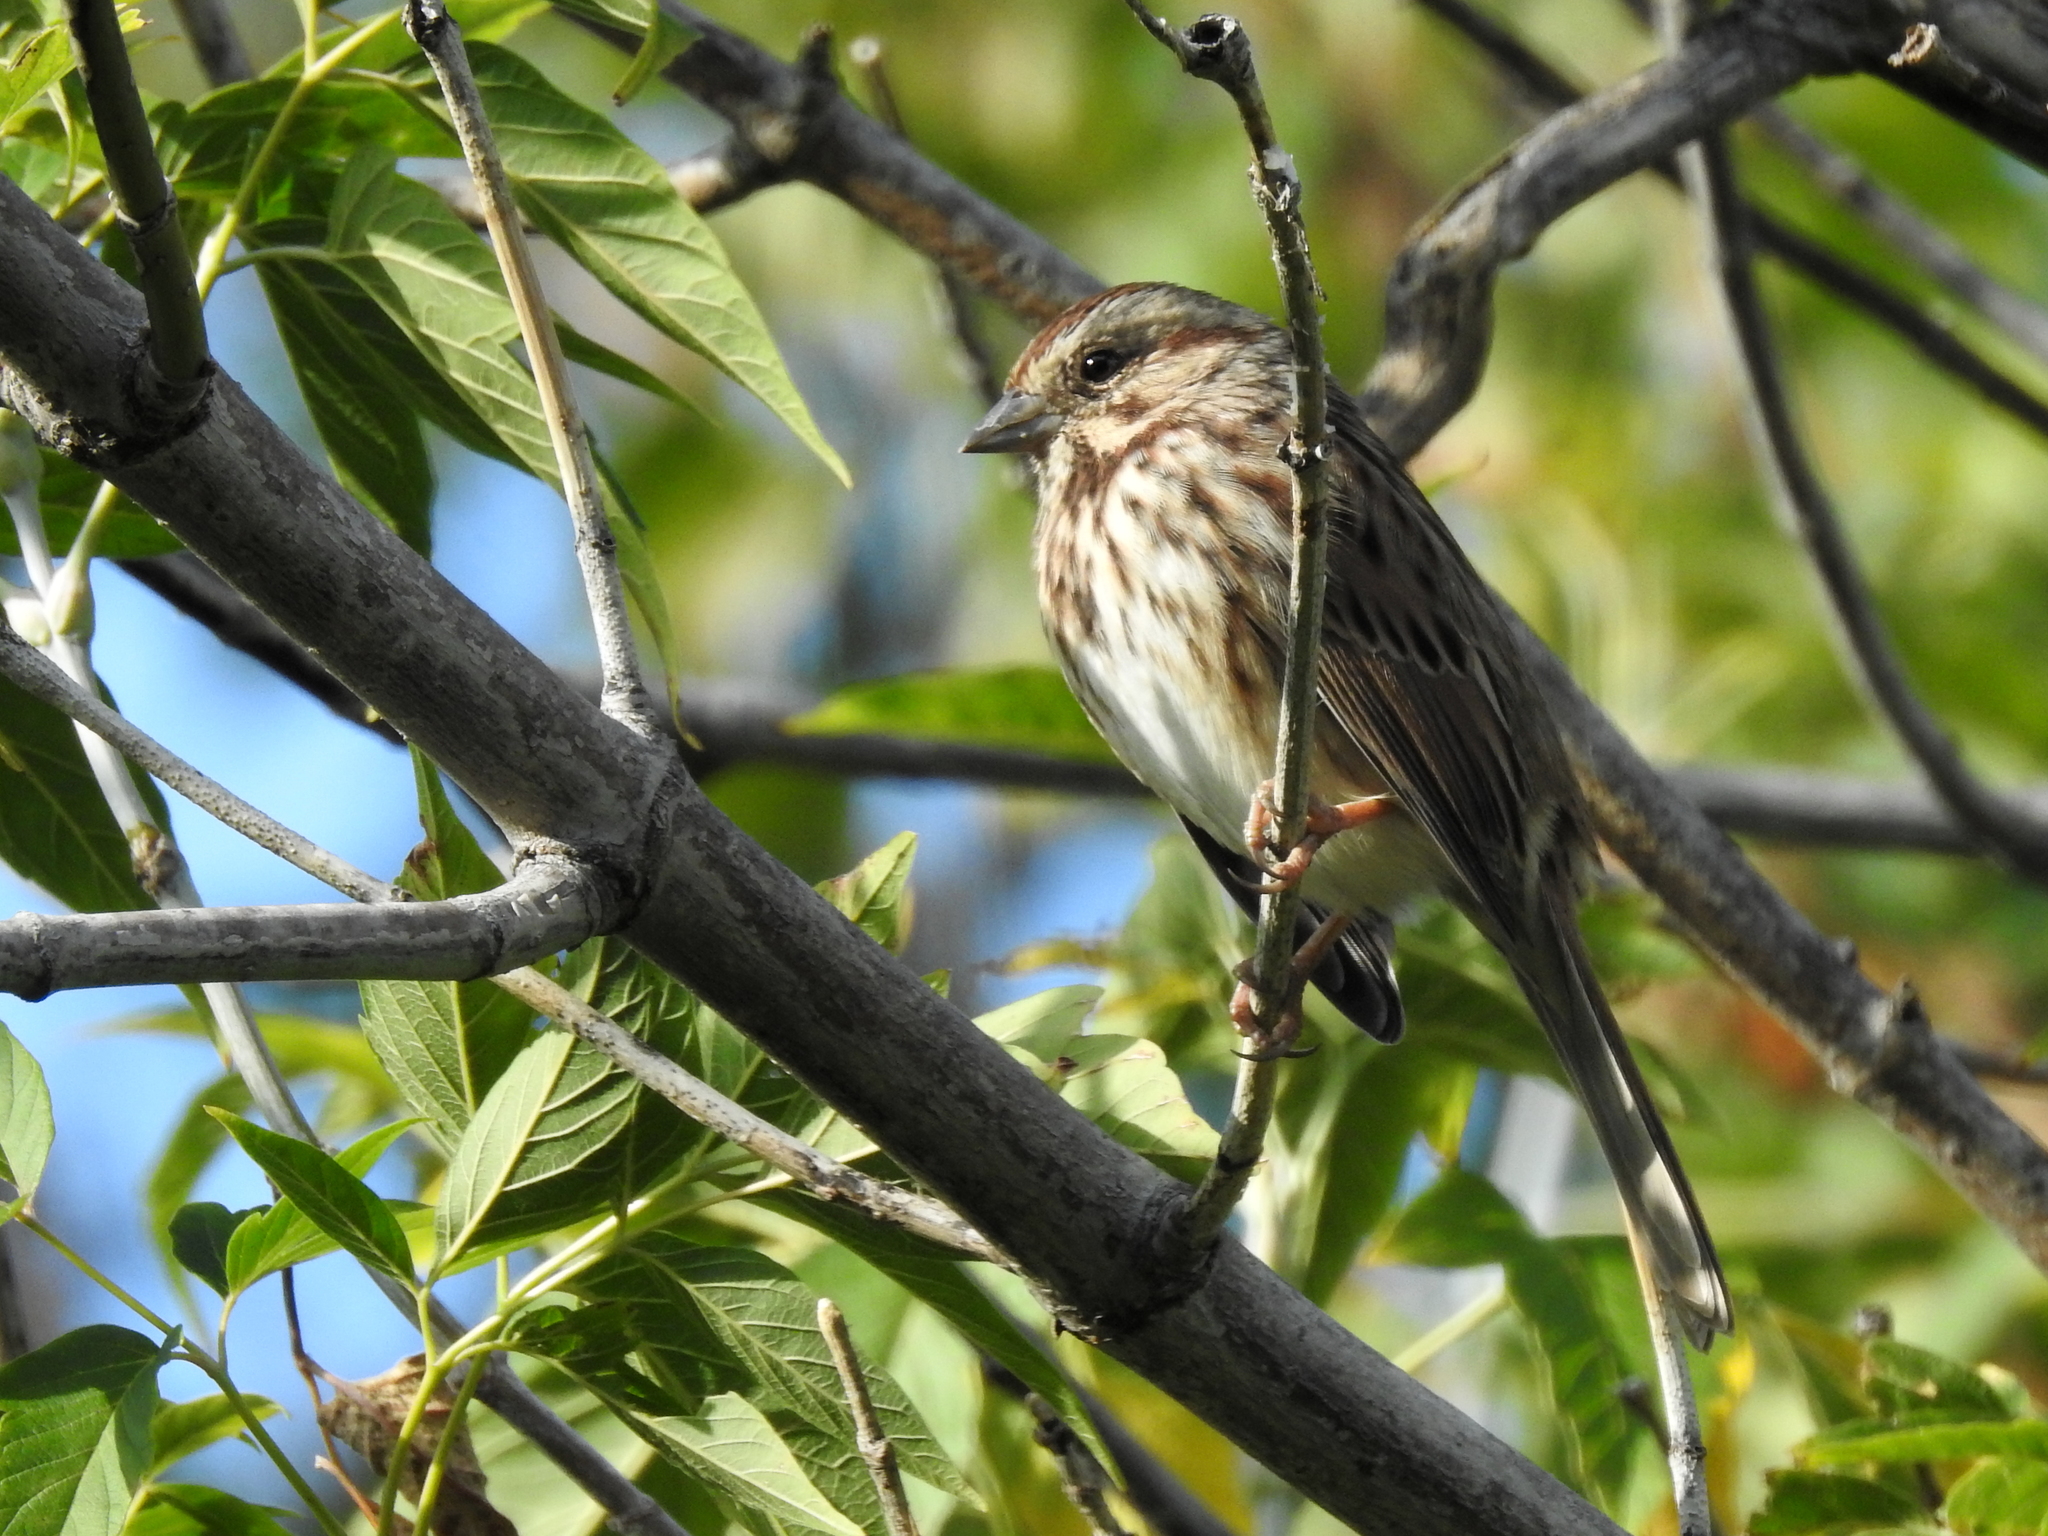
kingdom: Animalia
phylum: Chordata
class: Aves
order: Passeriformes
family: Passerellidae
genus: Melospiza
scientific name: Melospiza melodia
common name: Song sparrow
